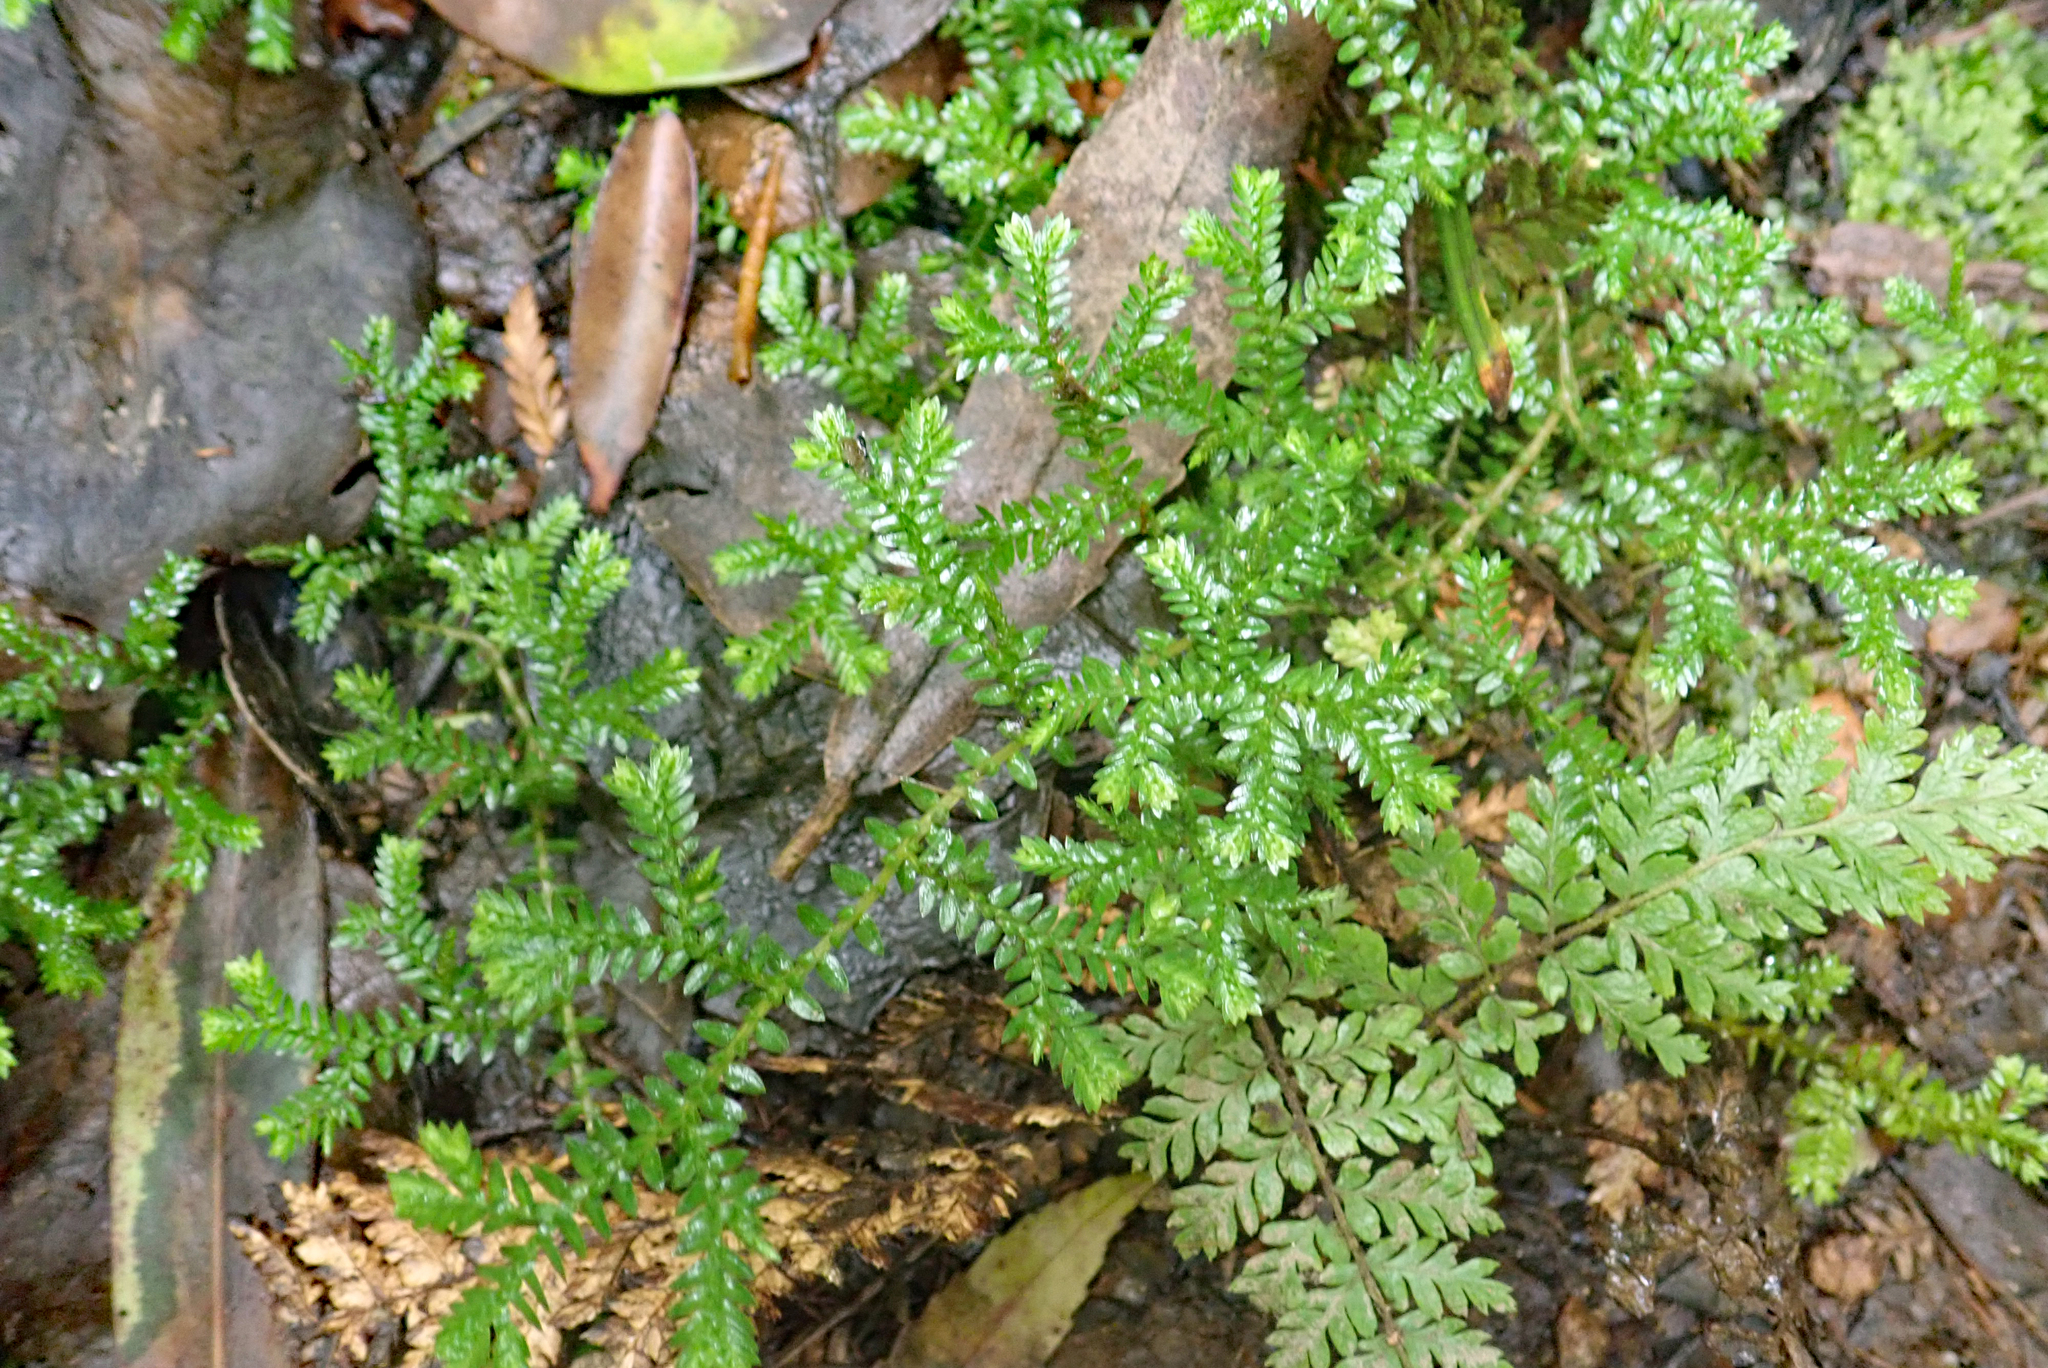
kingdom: Plantae
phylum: Tracheophyta
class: Lycopodiopsida
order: Selaginellales
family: Selaginellaceae
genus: Selaginella
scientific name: Selaginella kraussiana
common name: Krauss' spikemoss
